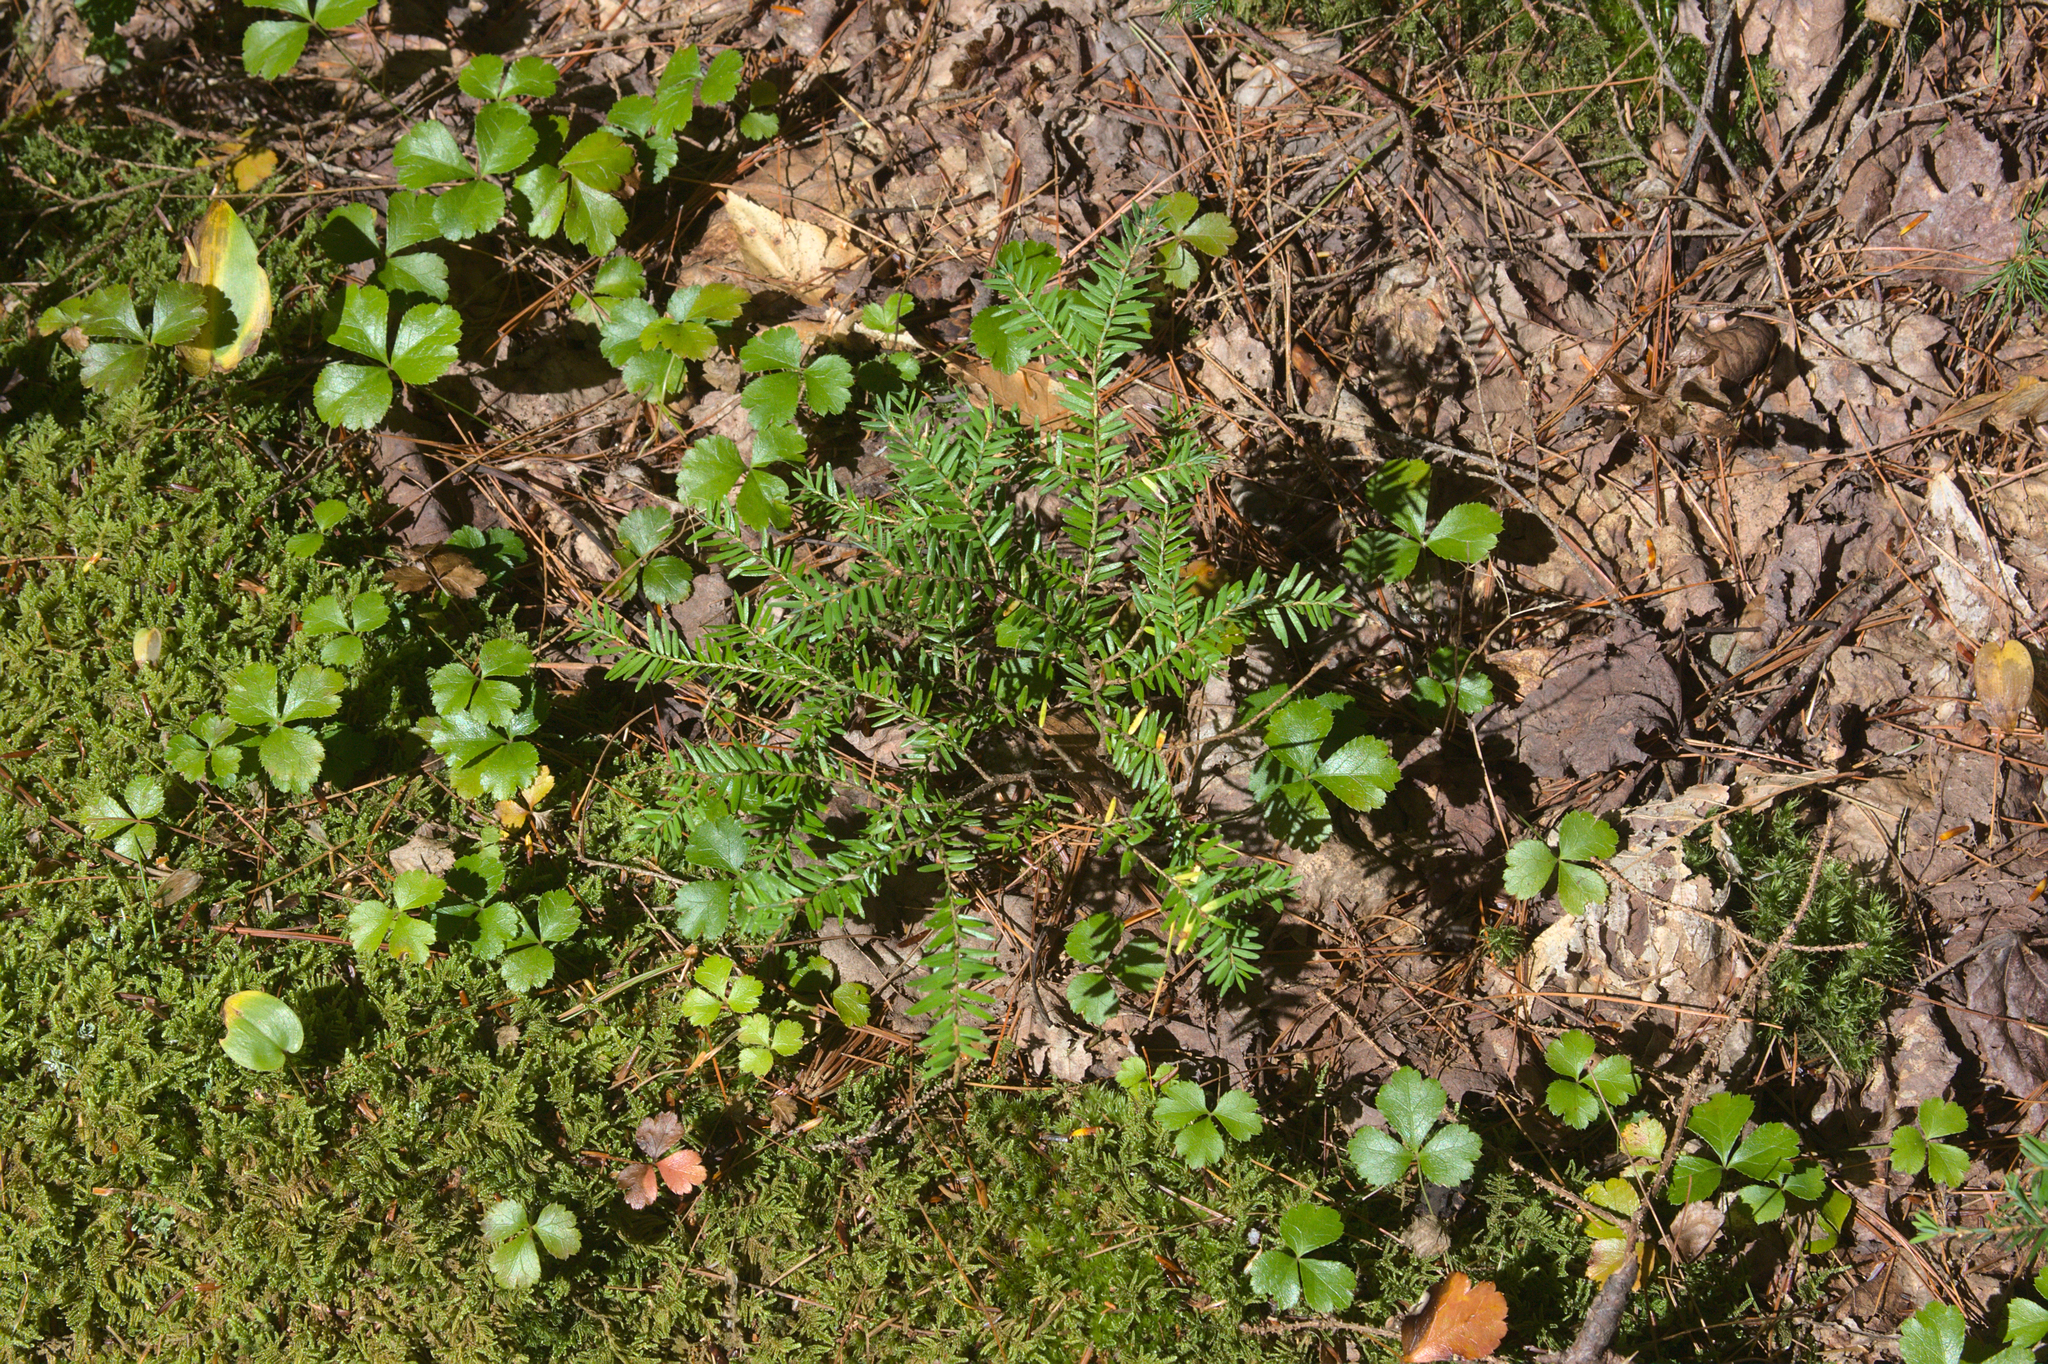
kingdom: Plantae
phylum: Tracheophyta
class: Magnoliopsida
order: Ranunculales
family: Ranunculaceae
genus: Coptis
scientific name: Coptis trifolia
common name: Canker-root
